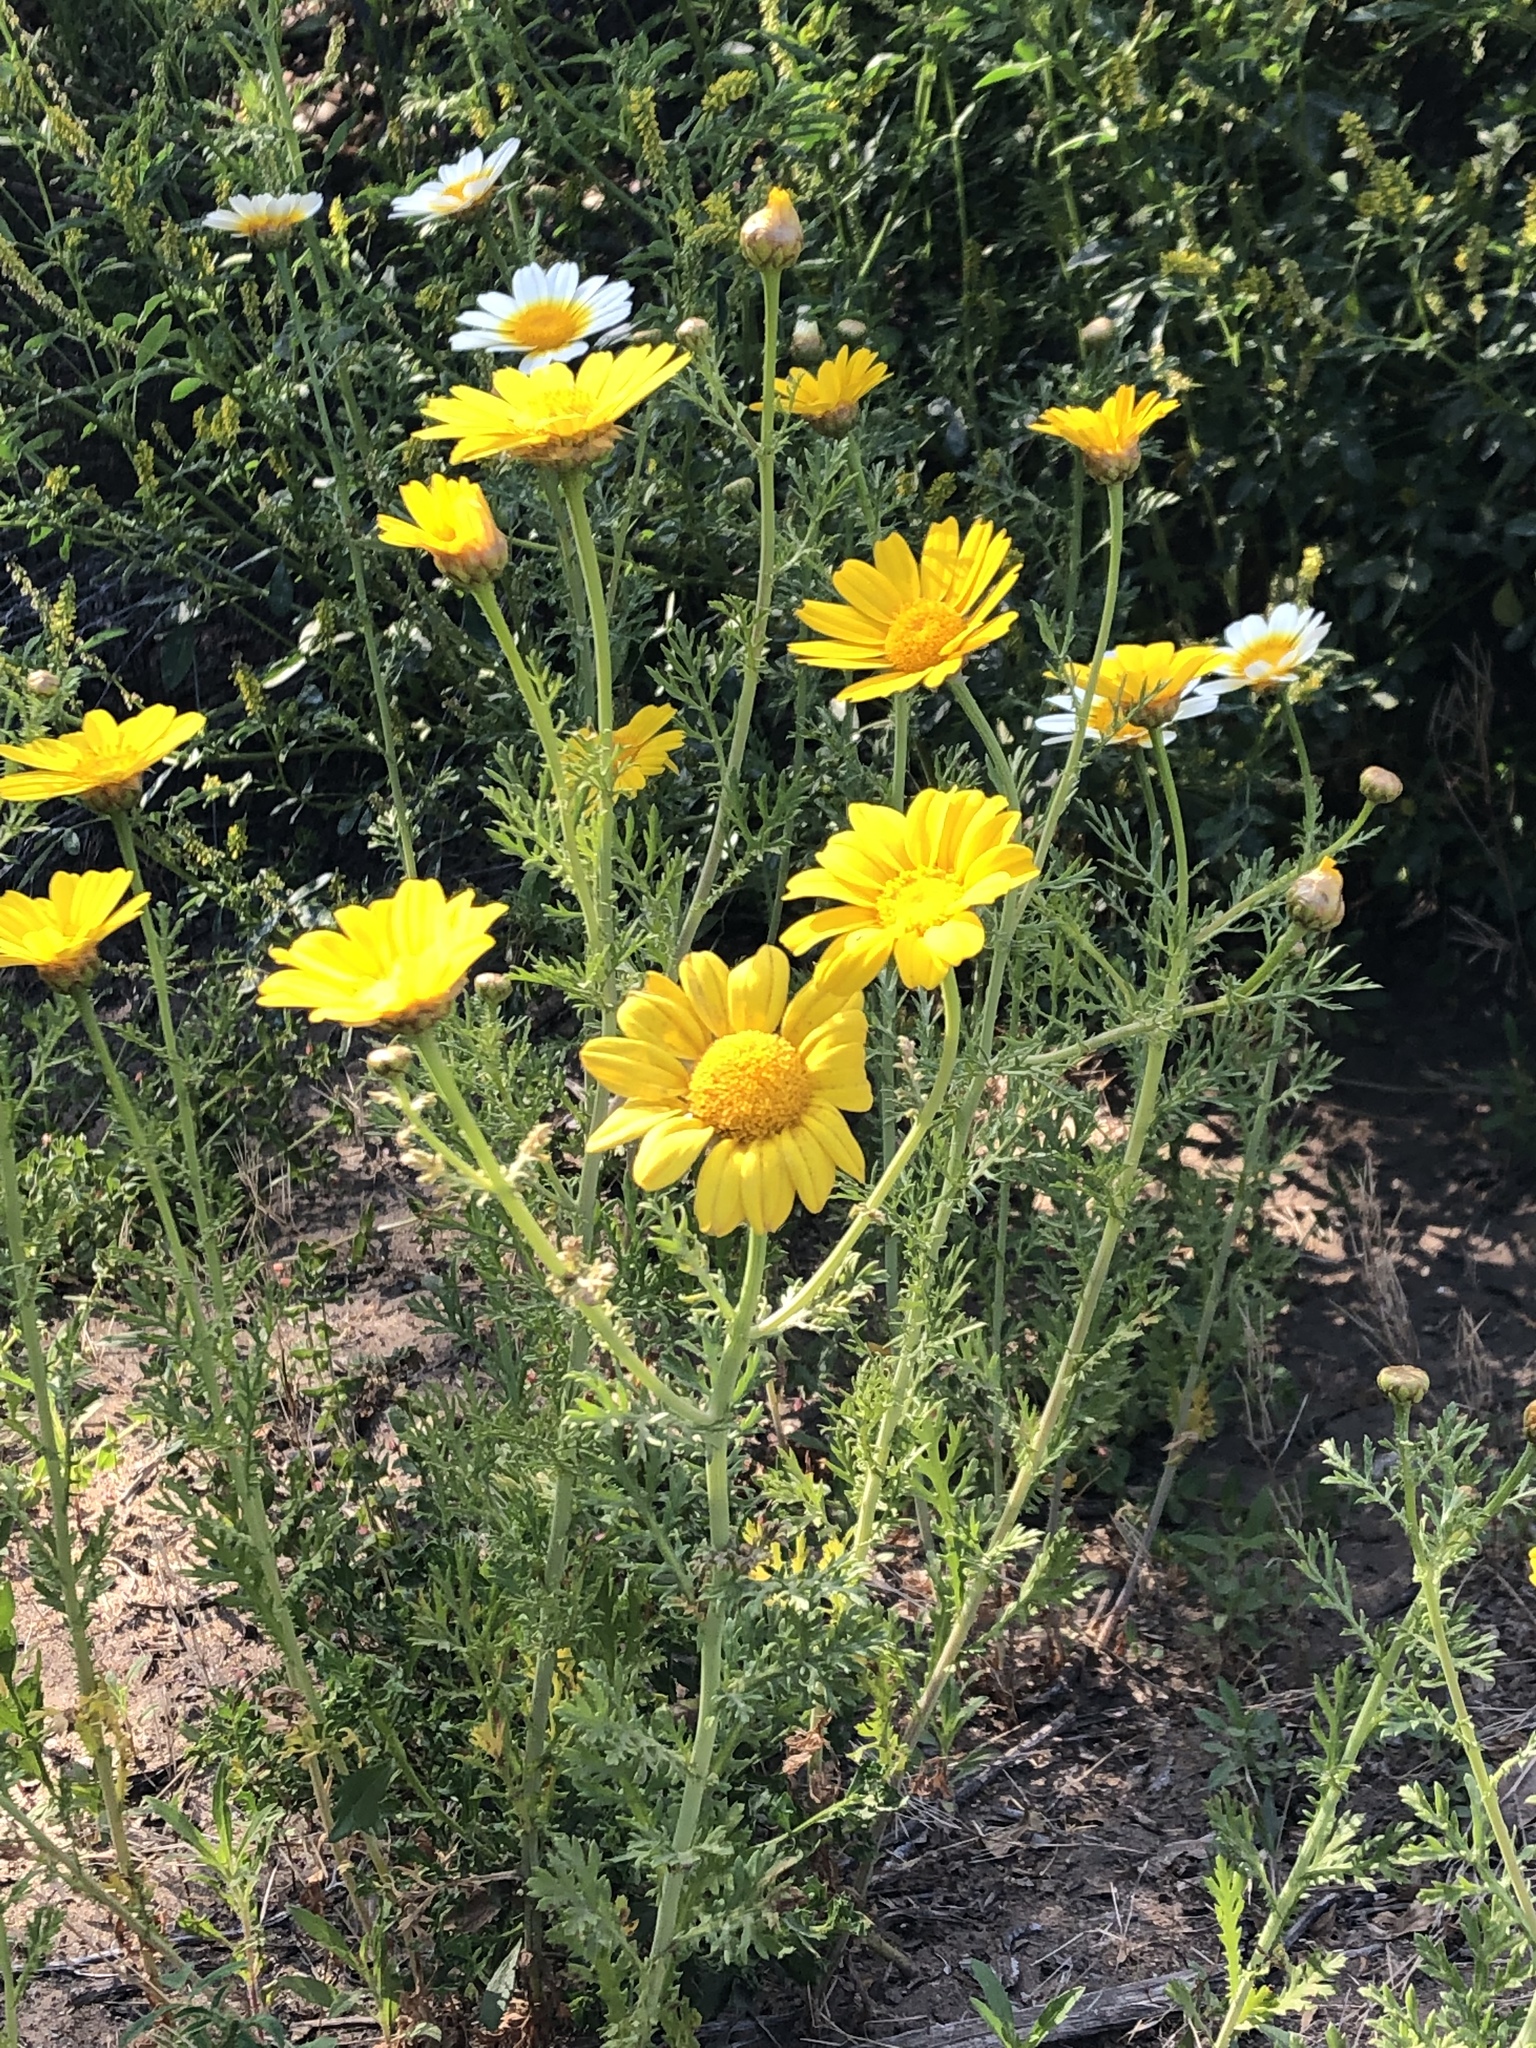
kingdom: Plantae
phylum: Tracheophyta
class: Magnoliopsida
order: Asterales
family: Asteraceae
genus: Glebionis
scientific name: Glebionis coronaria
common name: Crowndaisy
